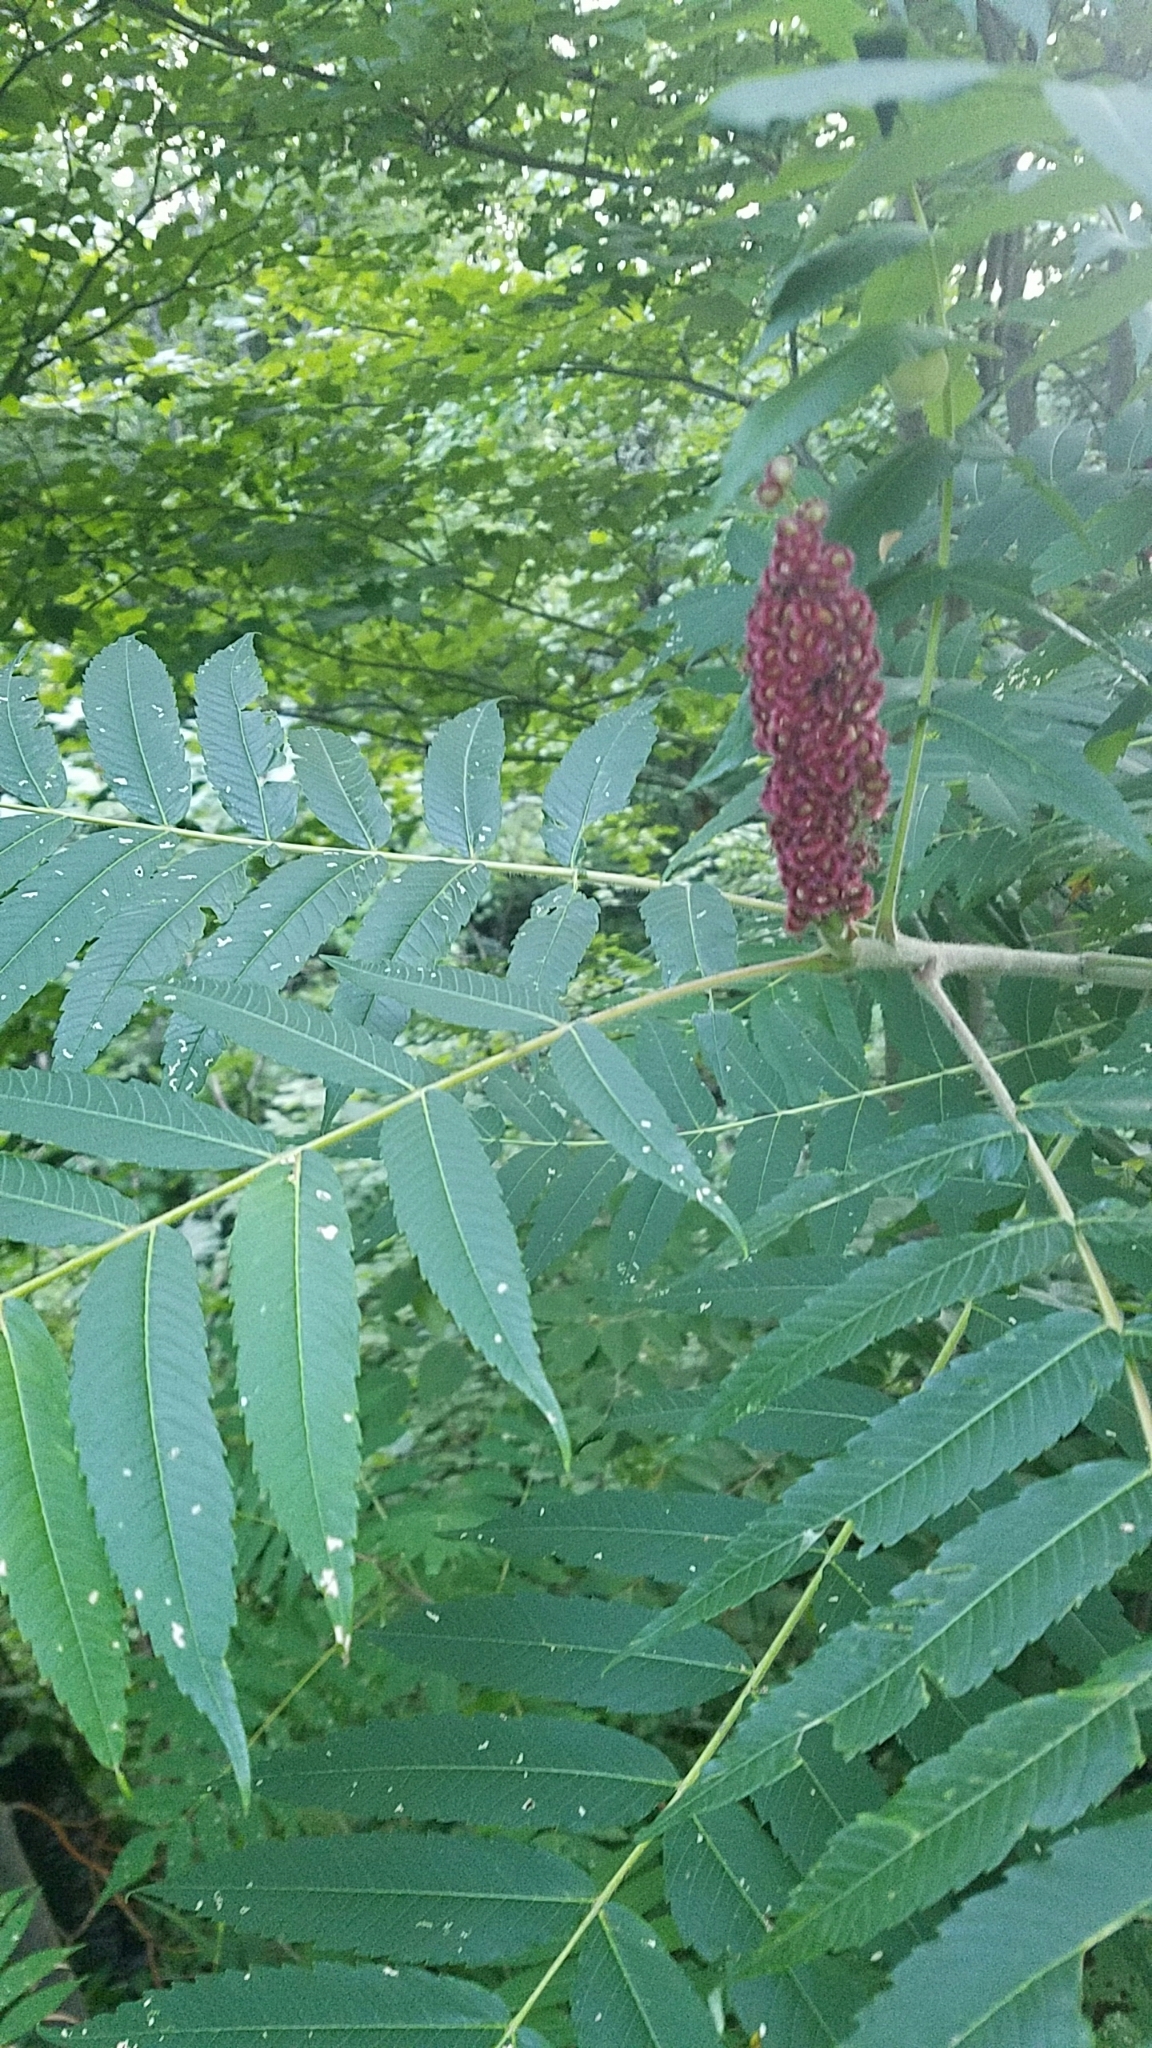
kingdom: Plantae
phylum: Tracheophyta
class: Magnoliopsida
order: Sapindales
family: Anacardiaceae
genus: Rhus
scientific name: Rhus typhina
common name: Staghorn sumac
